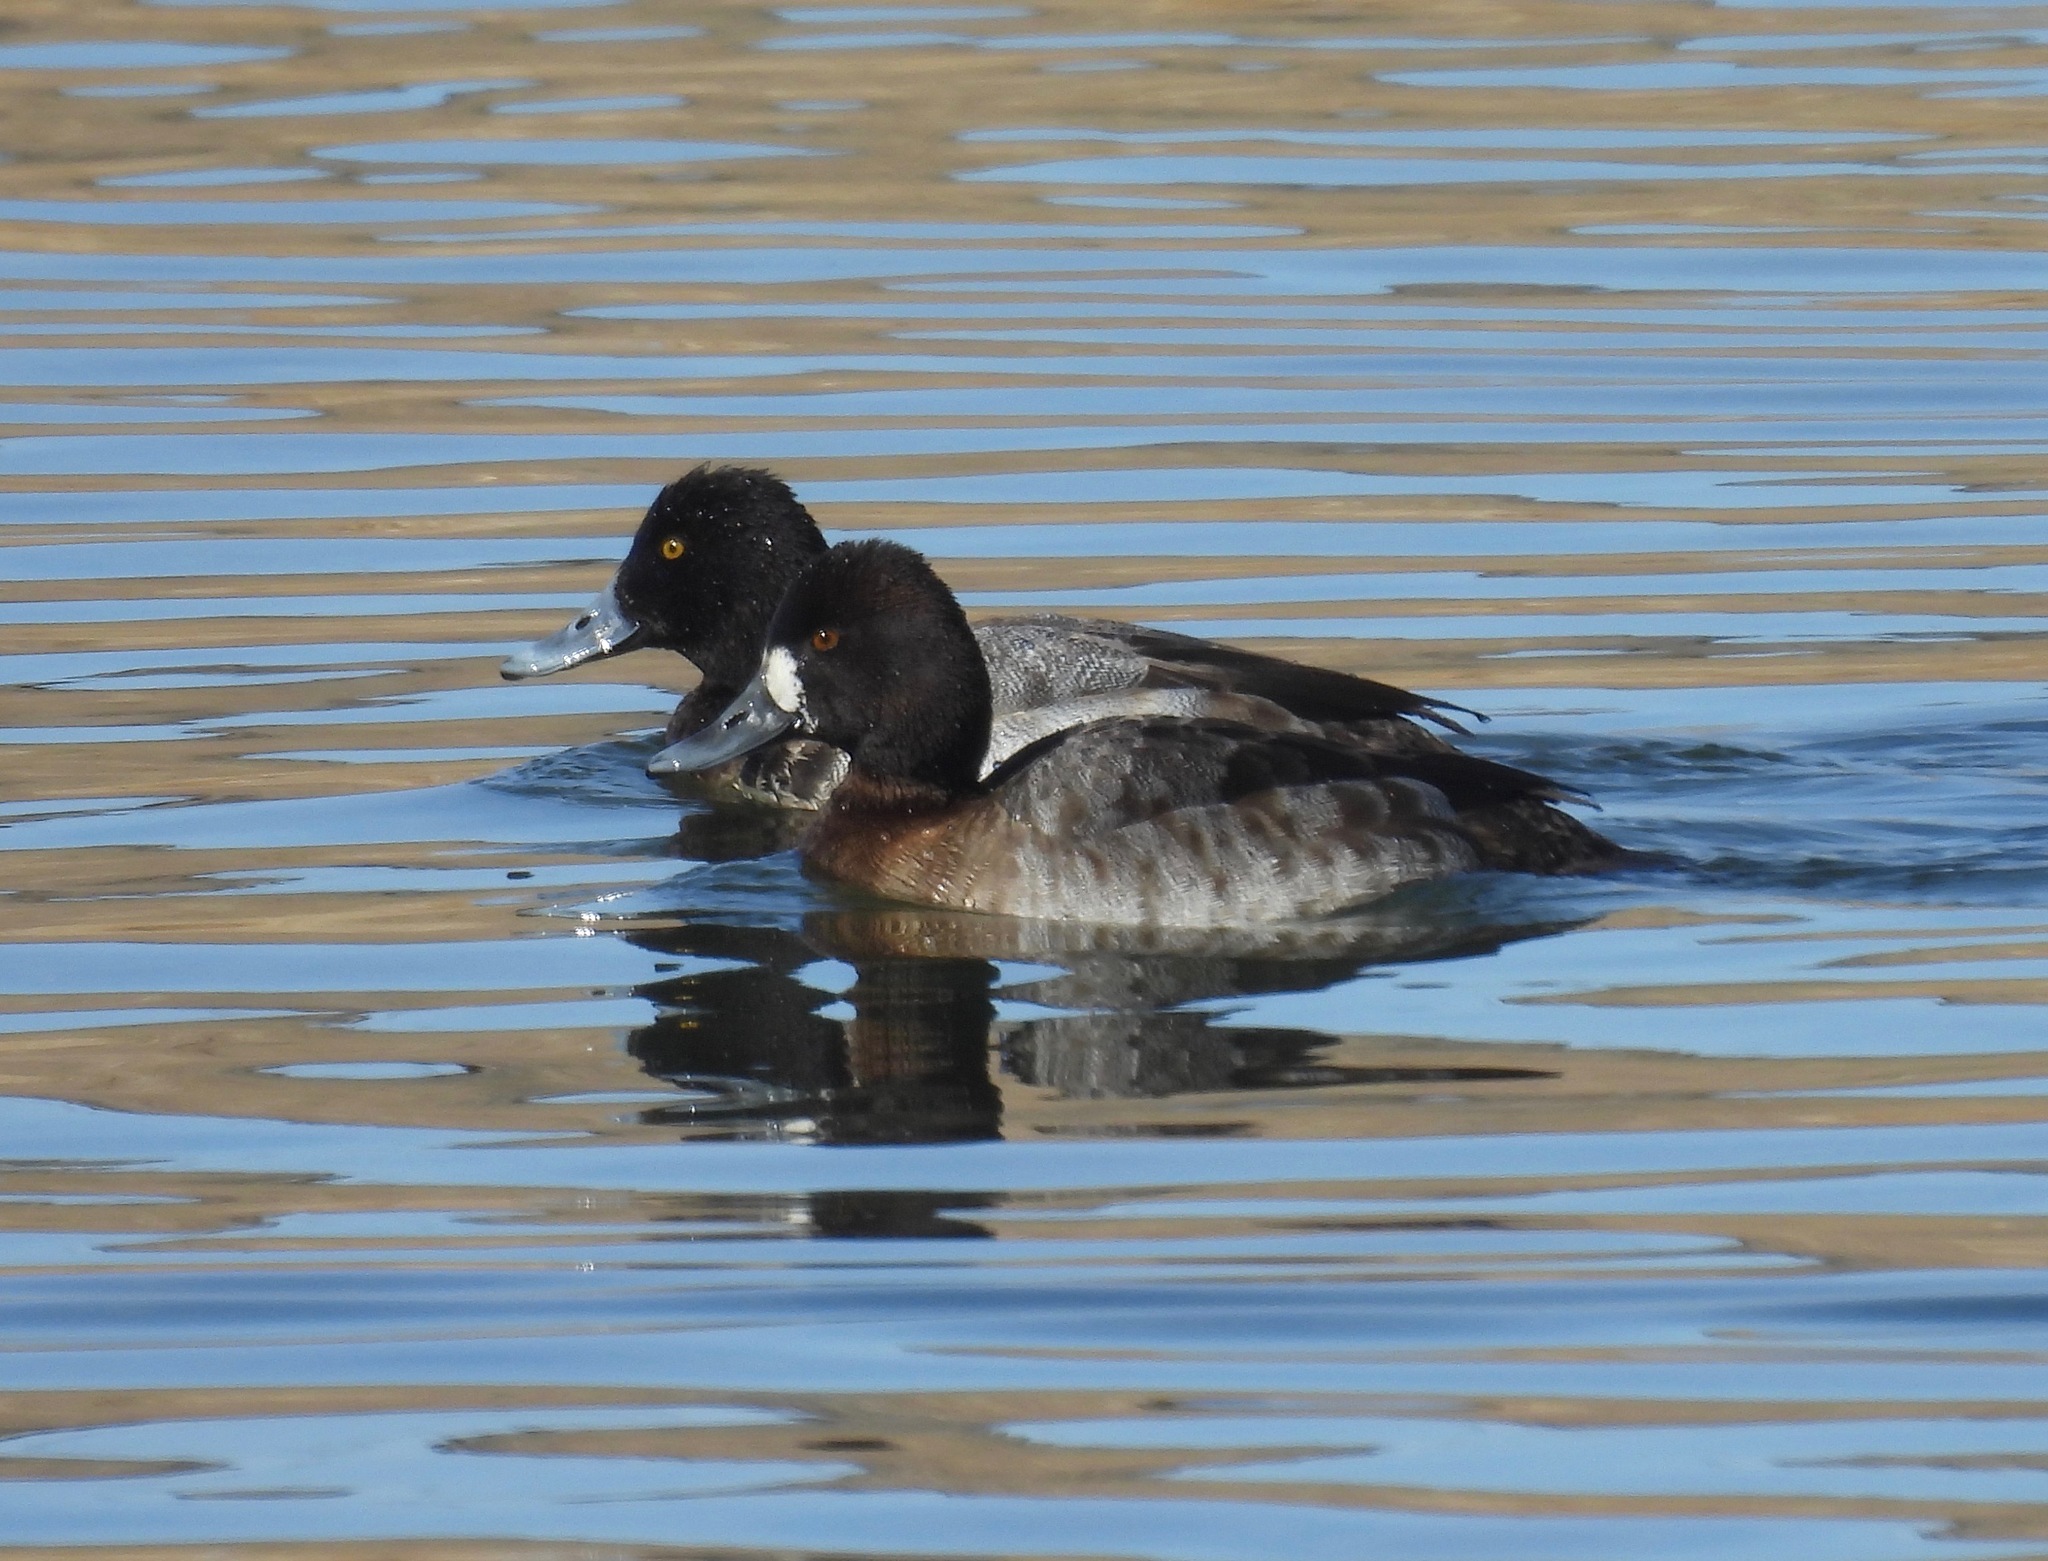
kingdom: Animalia
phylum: Chordata
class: Aves
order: Anseriformes
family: Anatidae
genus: Aythya
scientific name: Aythya affinis
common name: Lesser scaup
